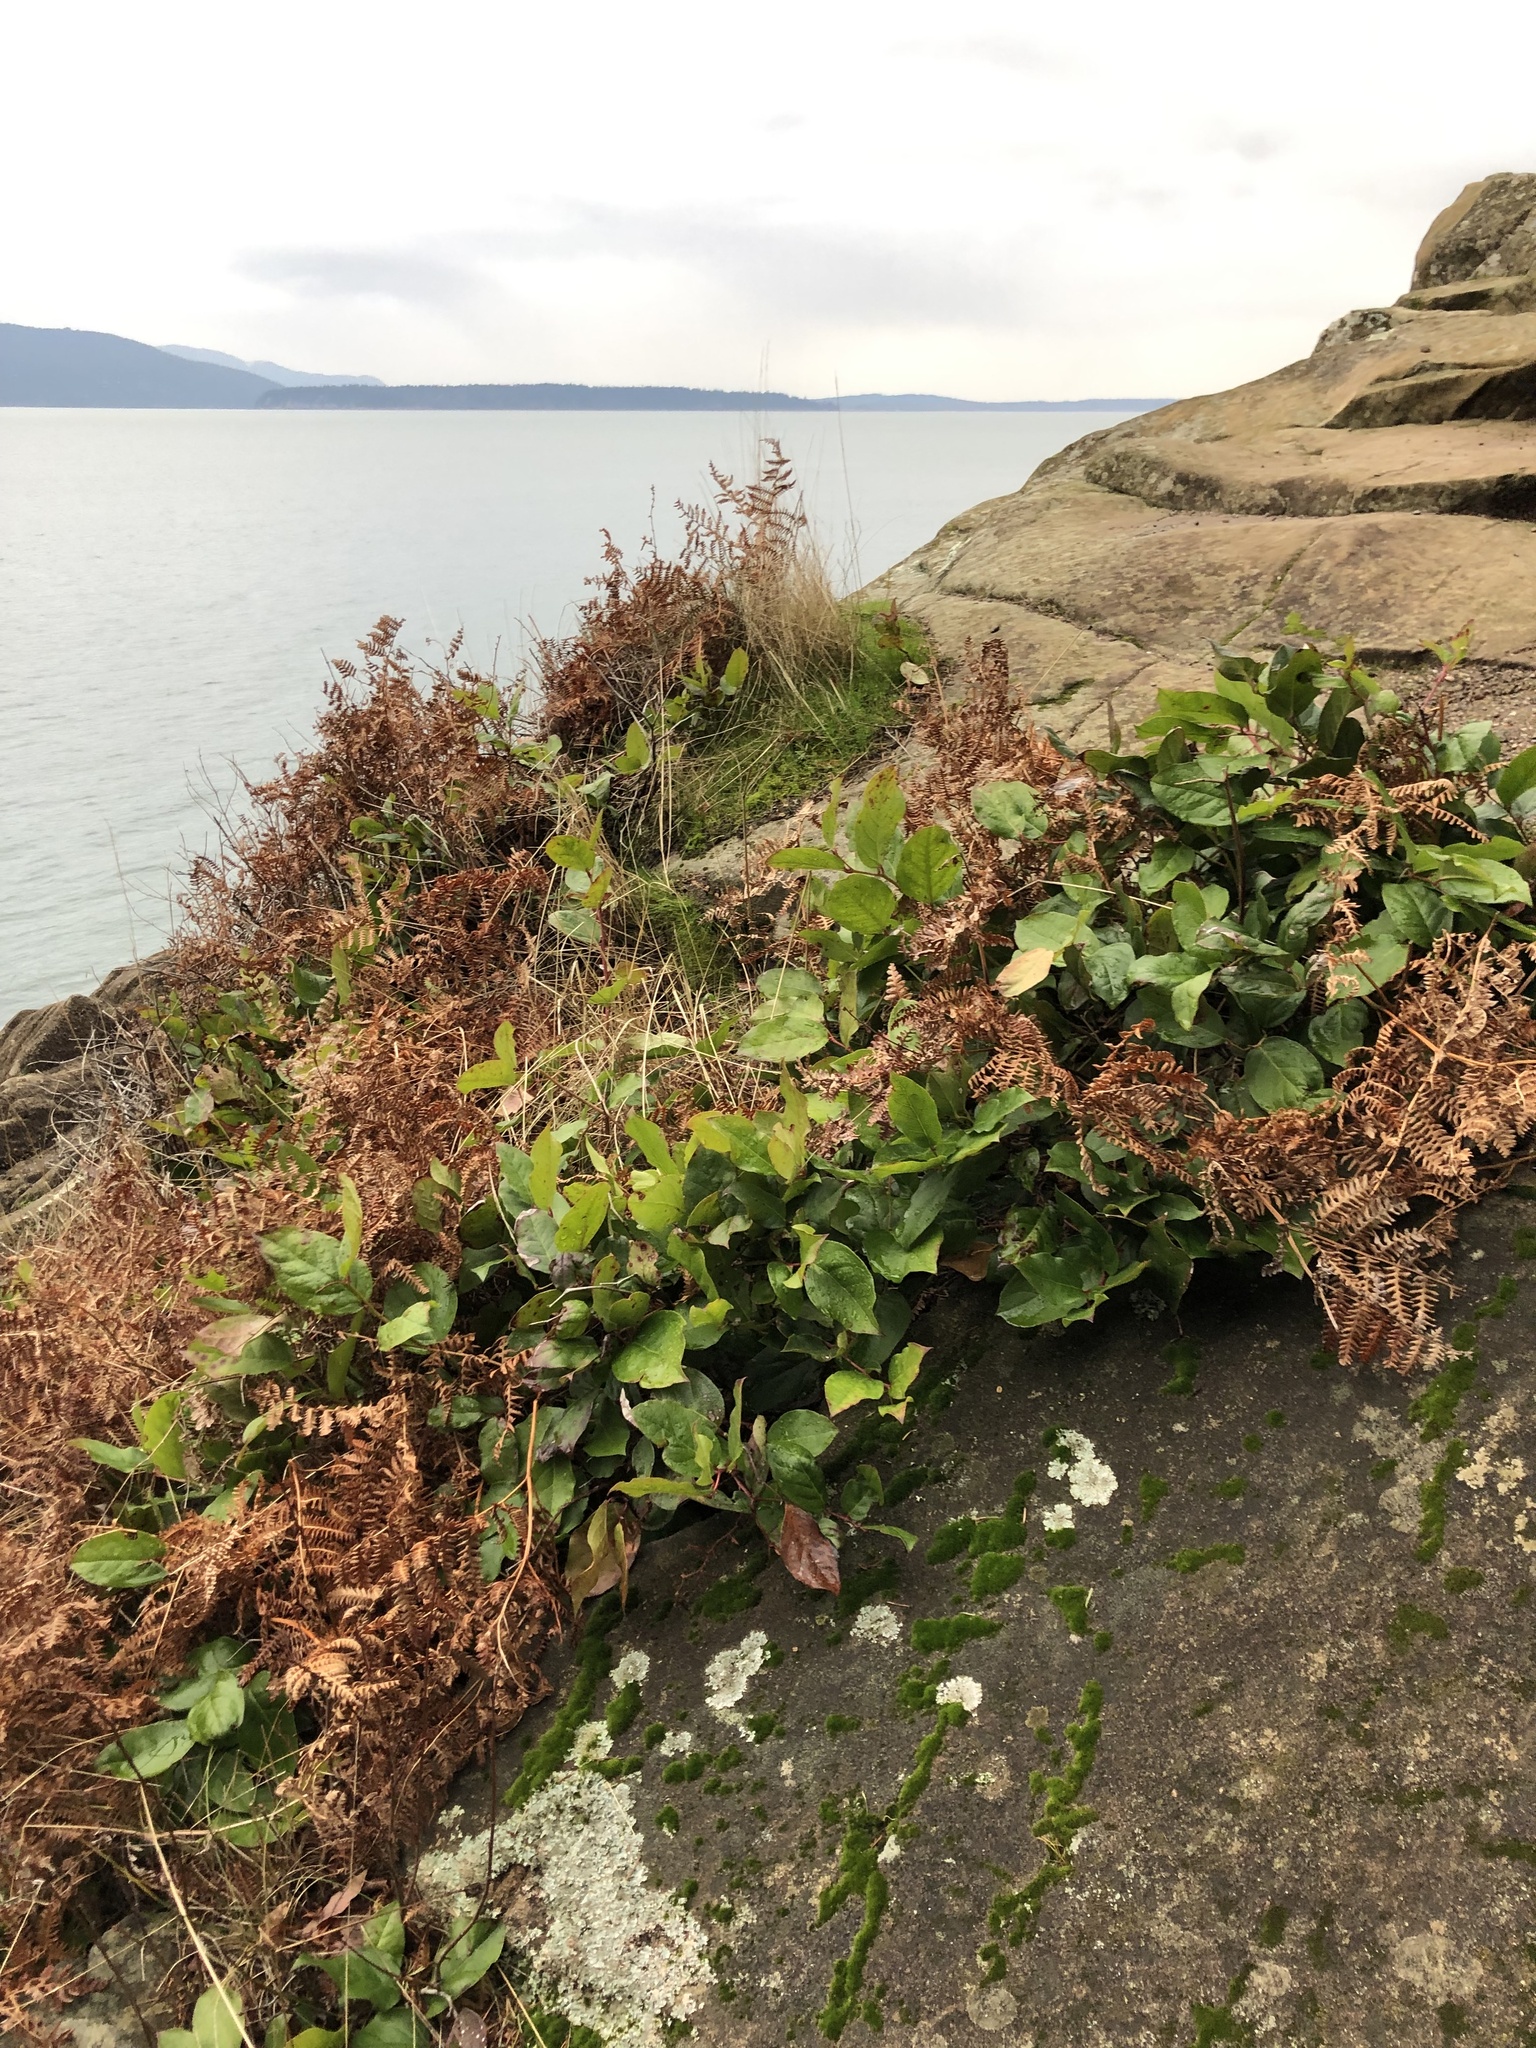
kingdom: Plantae
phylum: Tracheophyta
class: Magnoliopsida
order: Ericales
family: Ericaceae
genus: Gaultheria
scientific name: Gaultheria shallon
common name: Shallon
